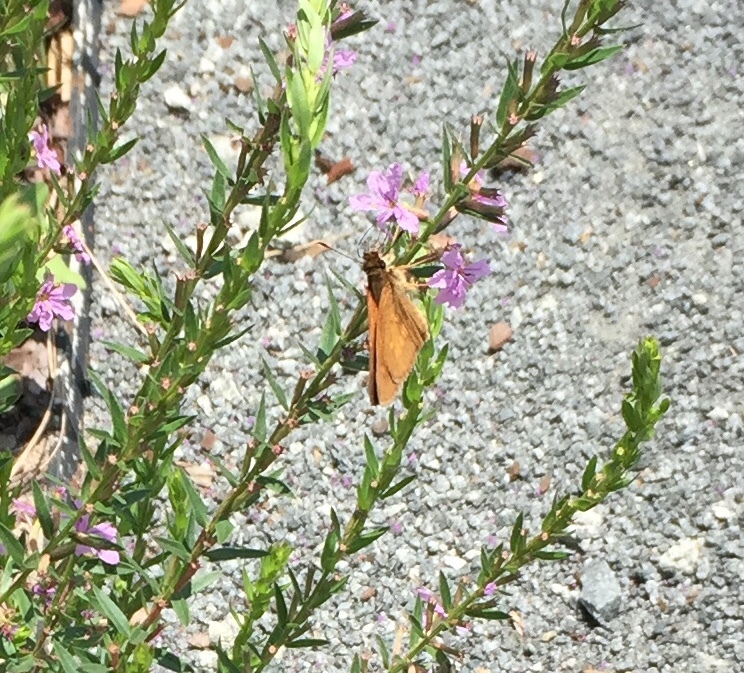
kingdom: Animalia
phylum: Arthropoda
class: Insecta
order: Lepidoptera
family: Hesperiidae
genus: Poanes
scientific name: Poanes viator
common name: Broad-winged skipper
